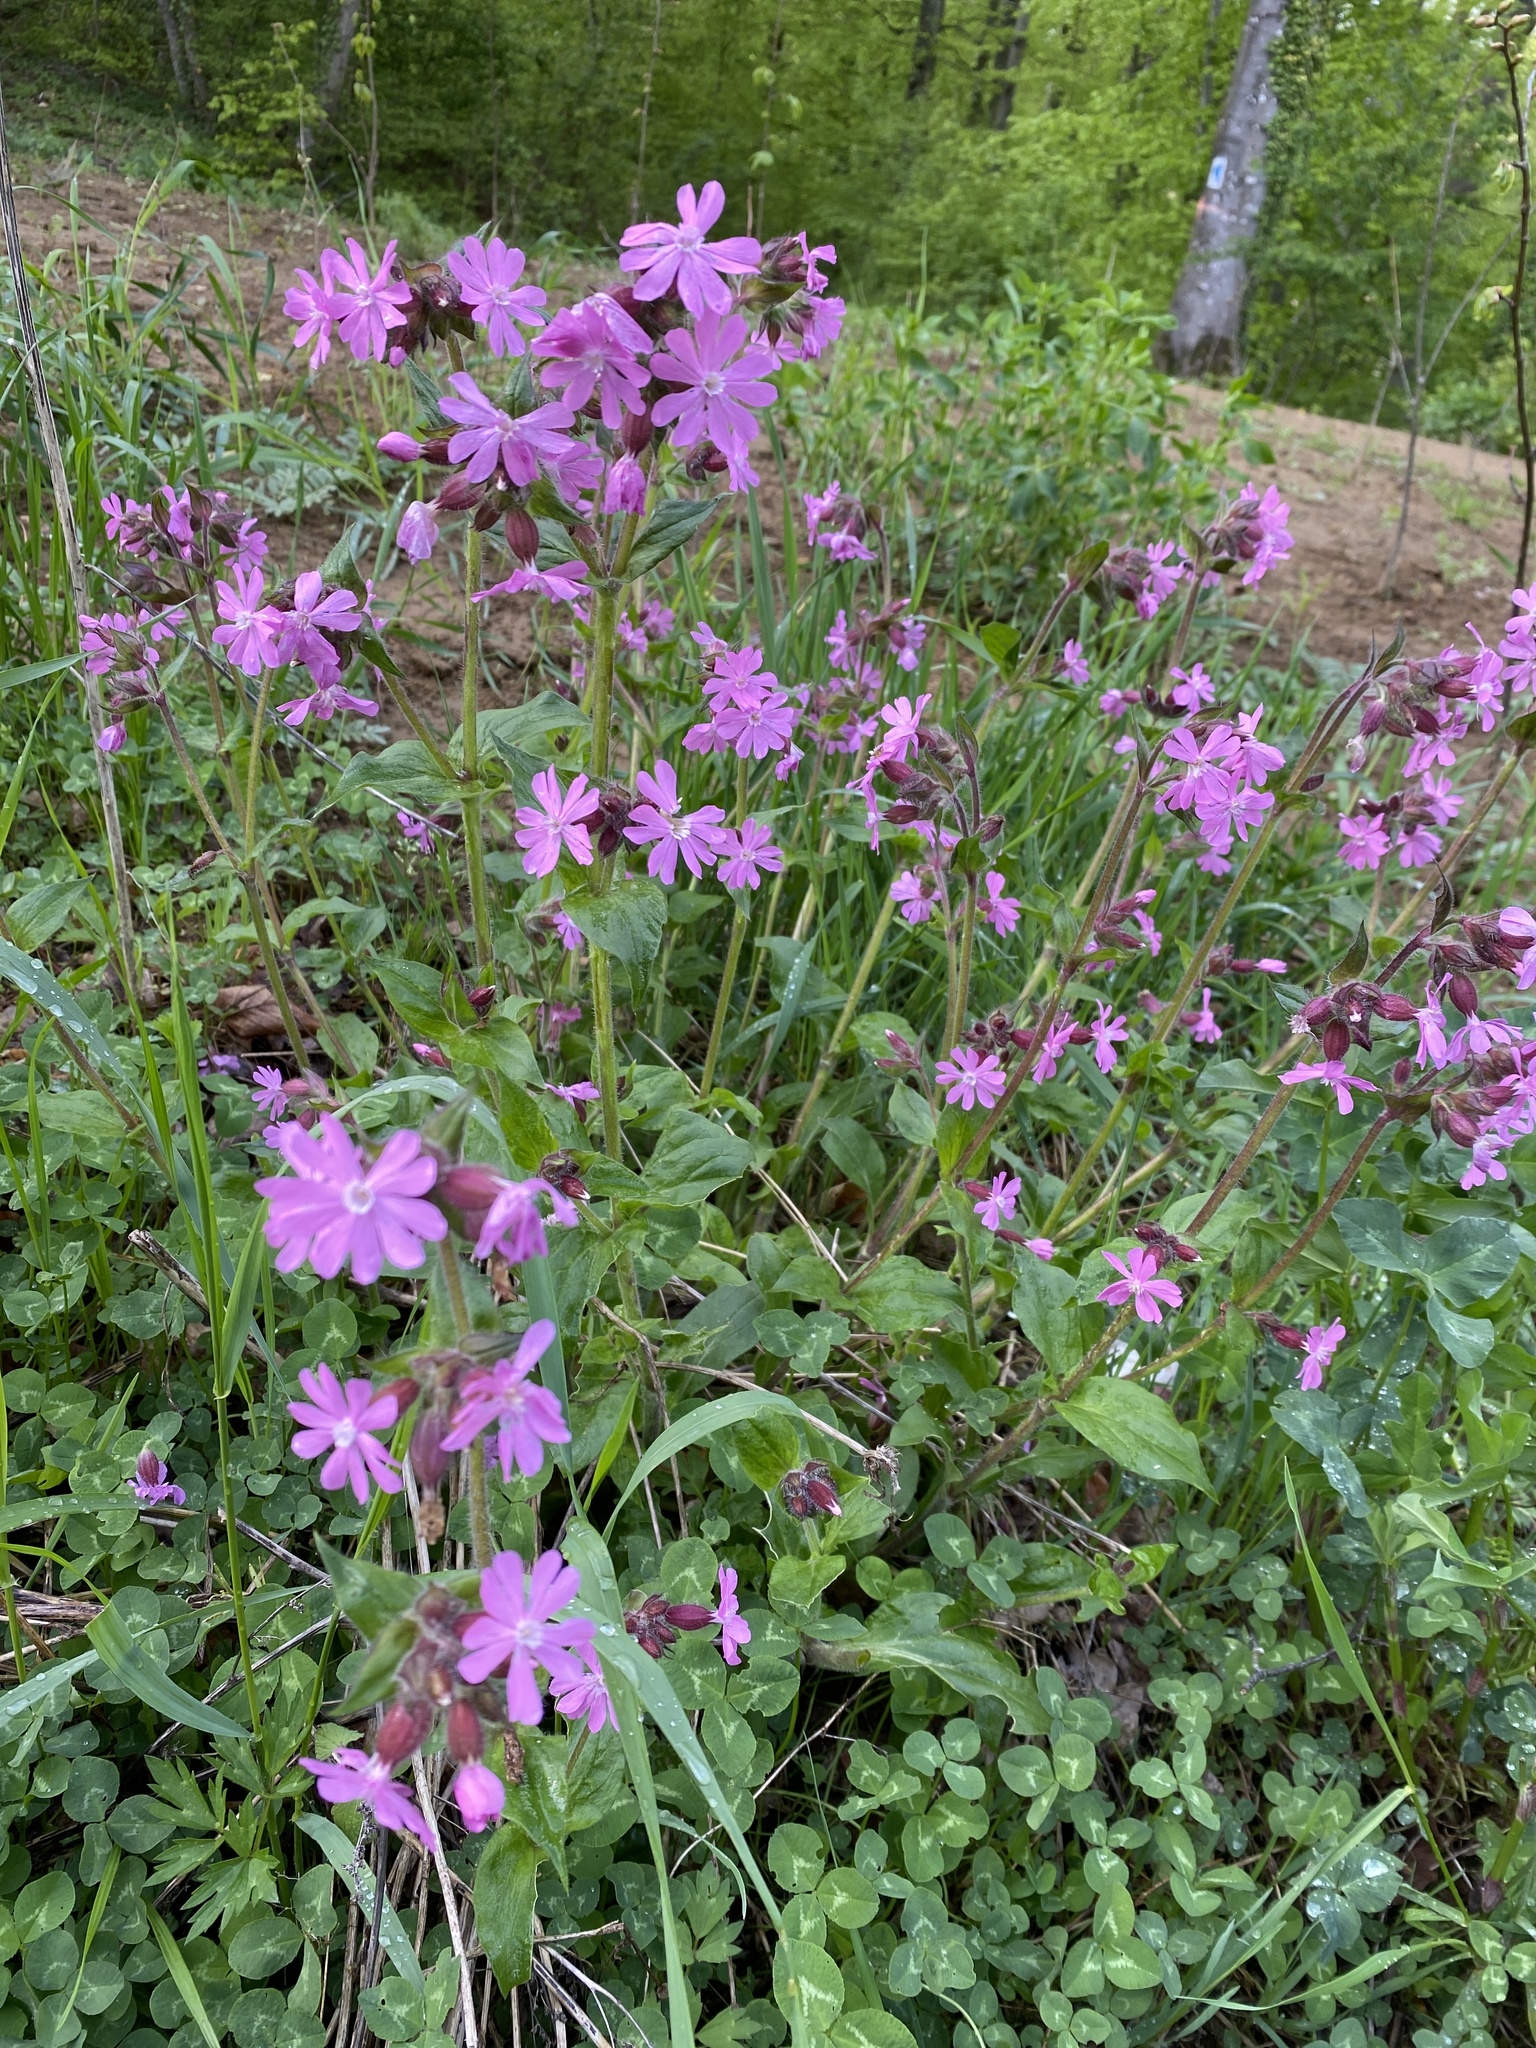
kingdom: Plantae
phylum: Tracheophyta
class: Magnoliopsida
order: Caryophyllales
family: Caryophyllaceae
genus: Silene
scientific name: Silene dioica
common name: Red campion
